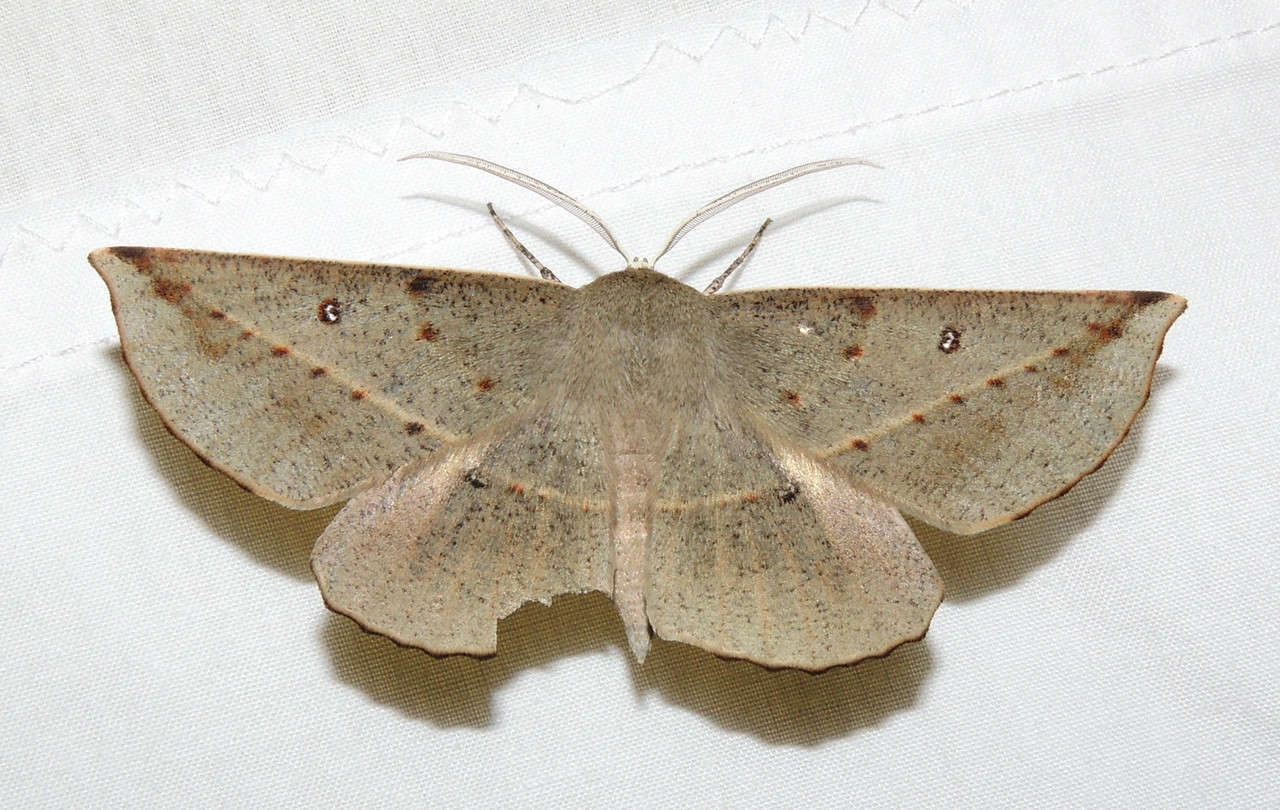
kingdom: Animalia
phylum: Arthropoda
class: Insecta
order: Lepidoptera
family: Geometridae
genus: Phallaria
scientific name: Phallaria ophiusaria
